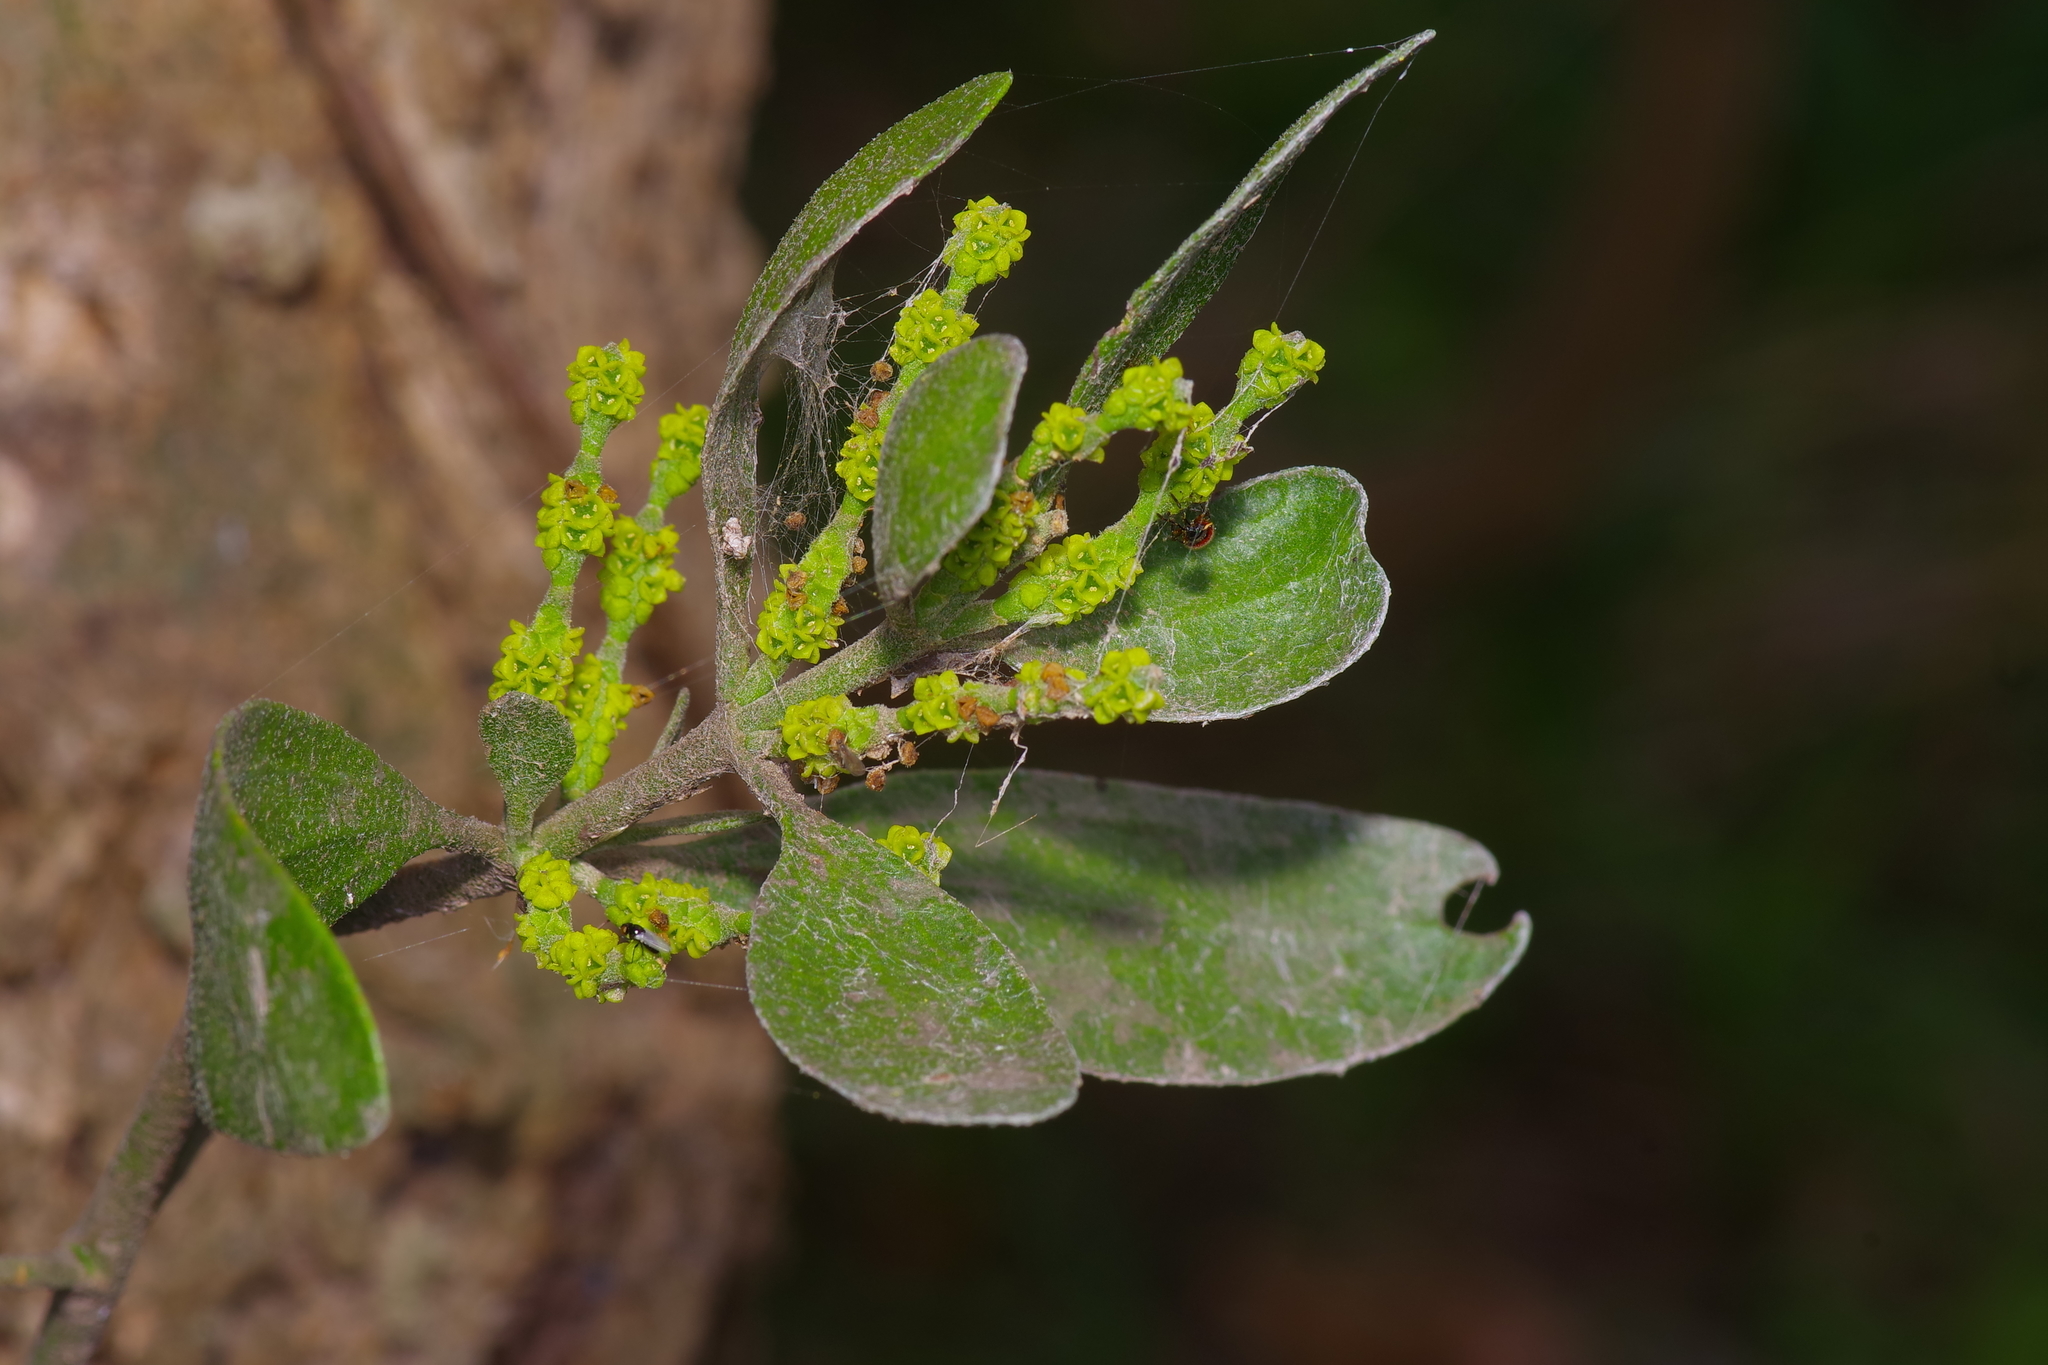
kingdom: Plantae
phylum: Tracheophyta
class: Magnoliopsida
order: Santalales
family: Viscaceae
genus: Phoradendron
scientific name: Phoradendron leucarpum
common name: Pacific mistletoe
